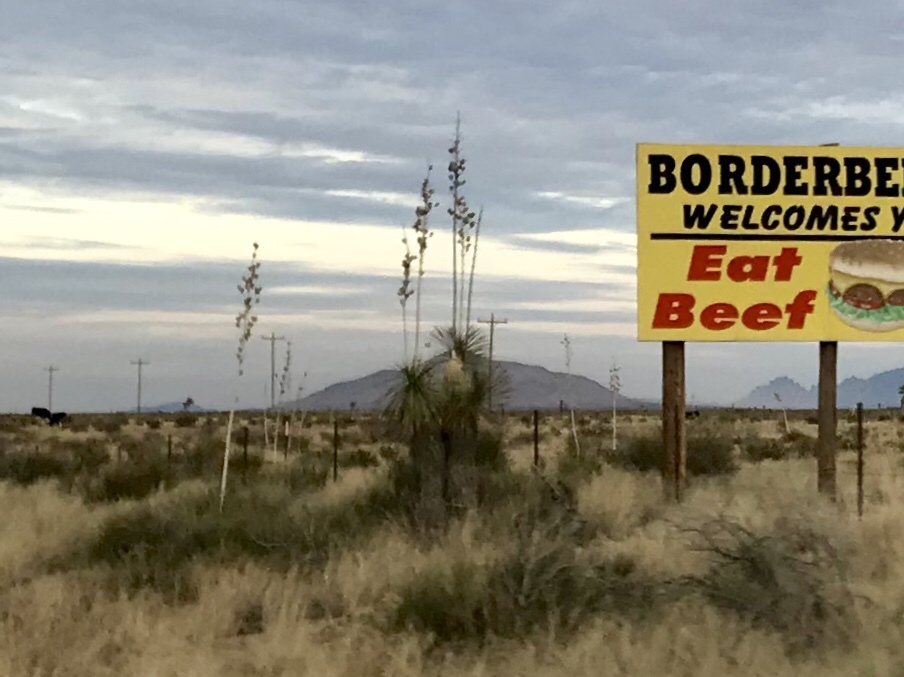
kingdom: Plantae
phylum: Tracheophyta
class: Liliopsida
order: Asparagales
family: Asparagaceae
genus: Yucca
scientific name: Yucca elata
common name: Palmella
